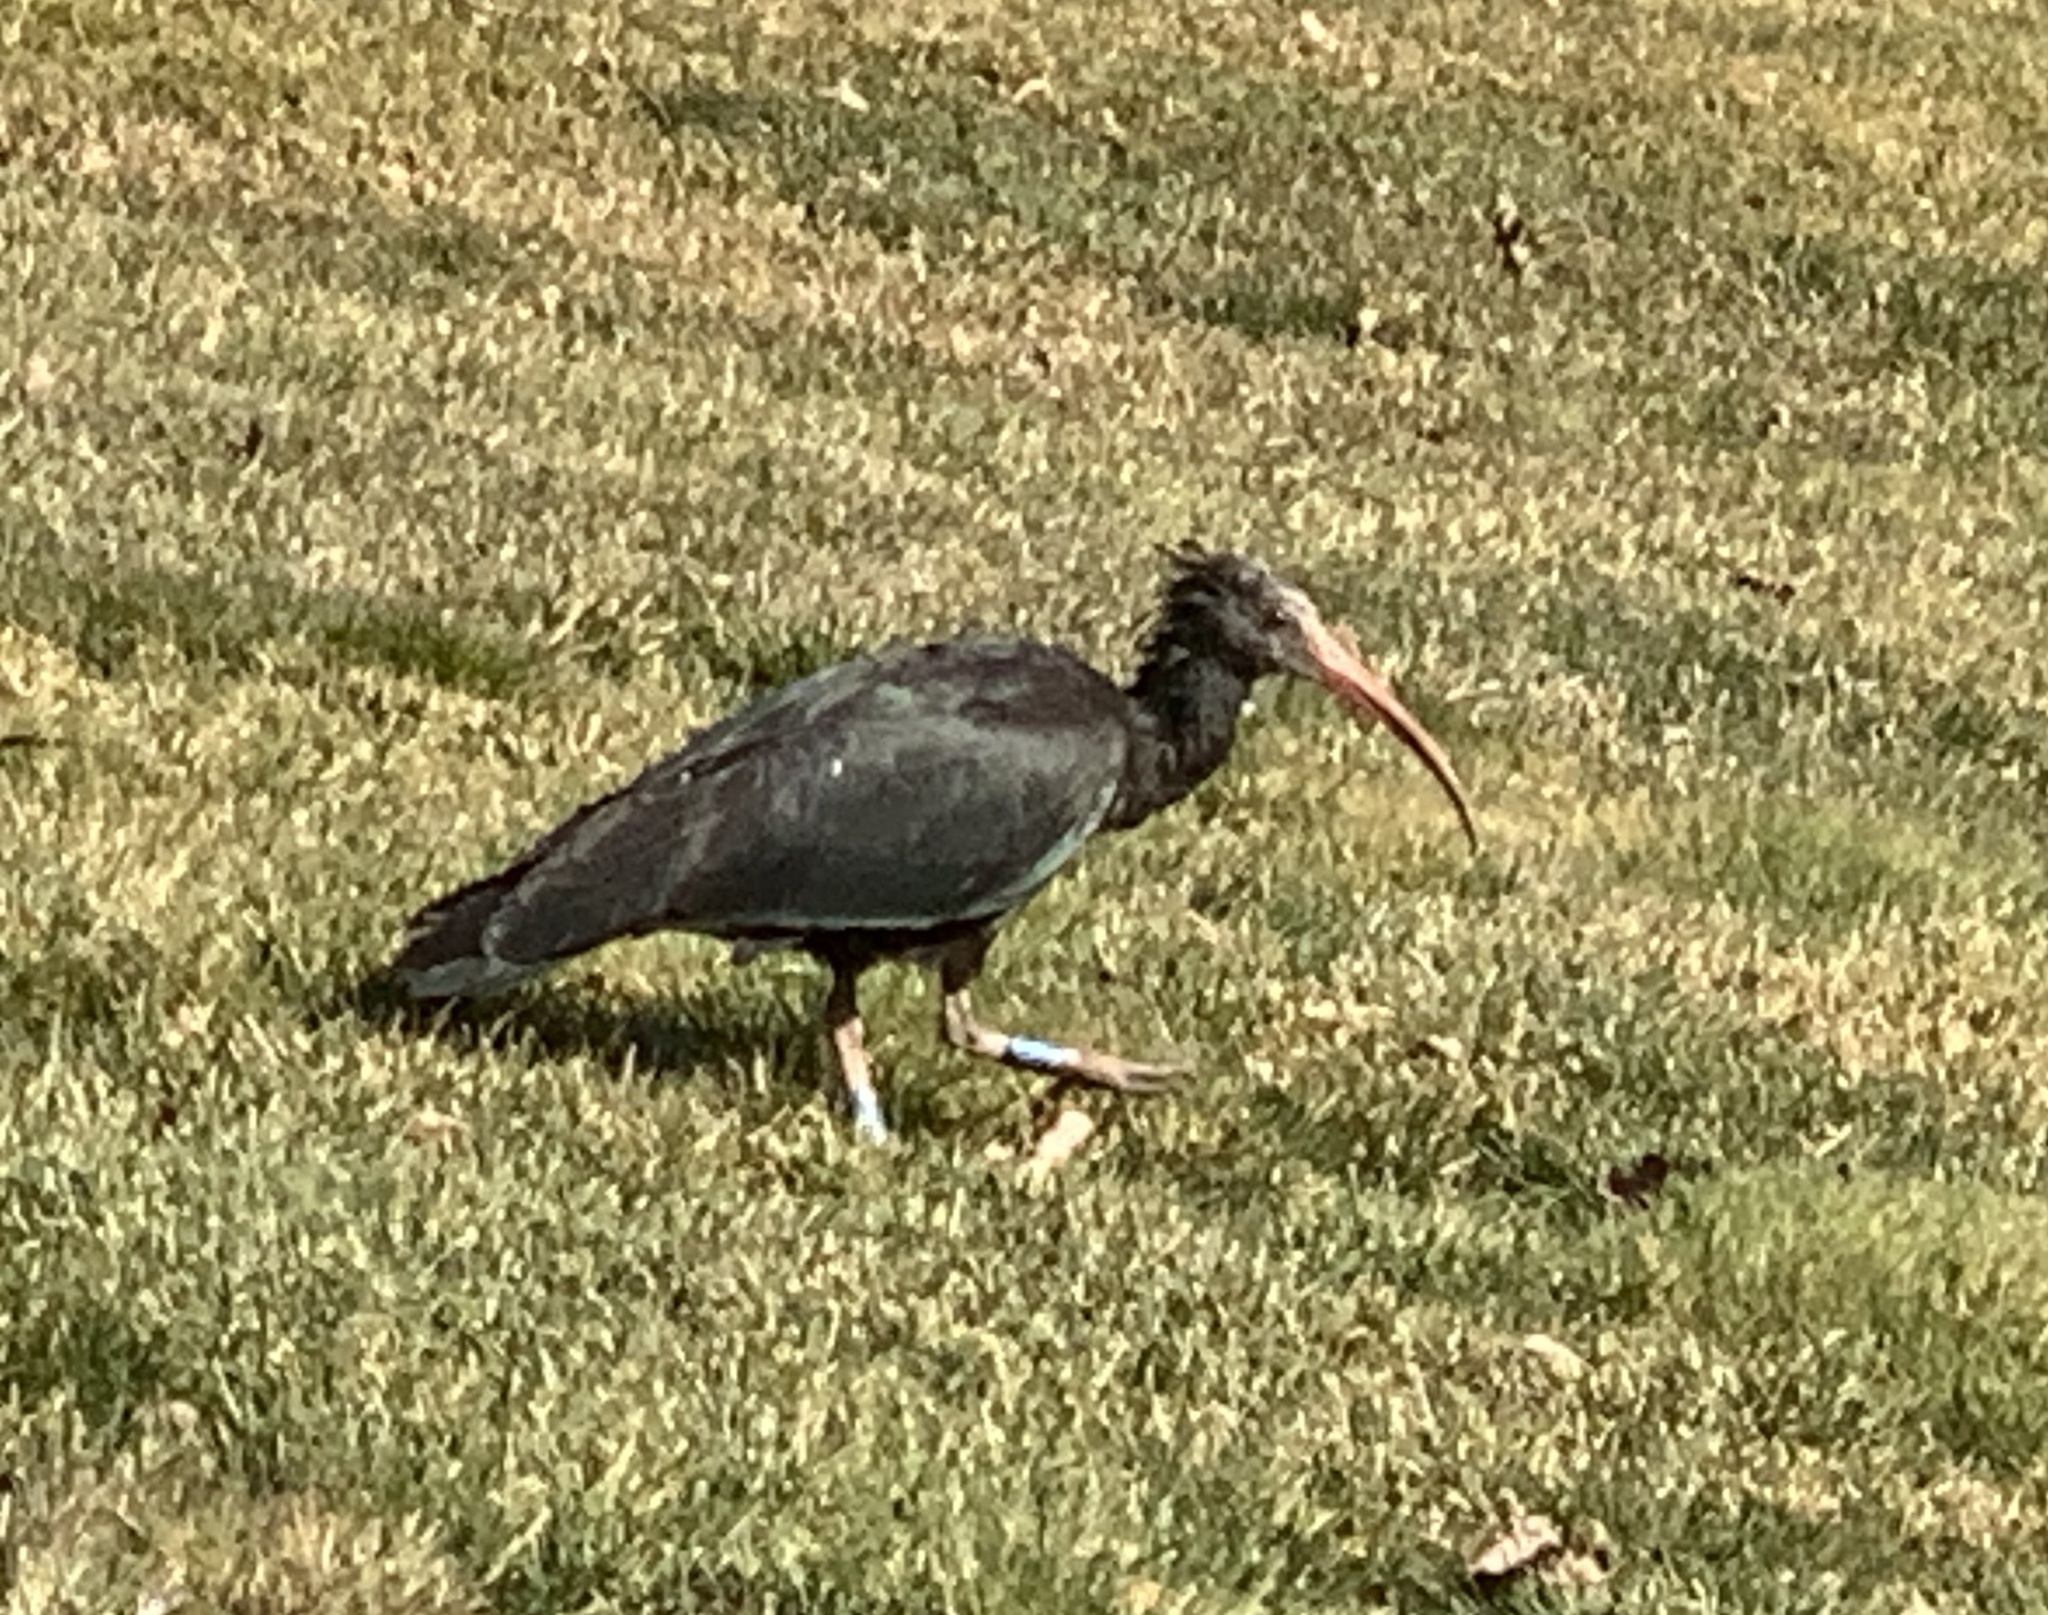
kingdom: Animalia
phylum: Chordata
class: Aves
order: Pelecaniformes
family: Threskiornithidae
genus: Geronticus
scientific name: Geronticus eremita
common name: Northern bald ibis
